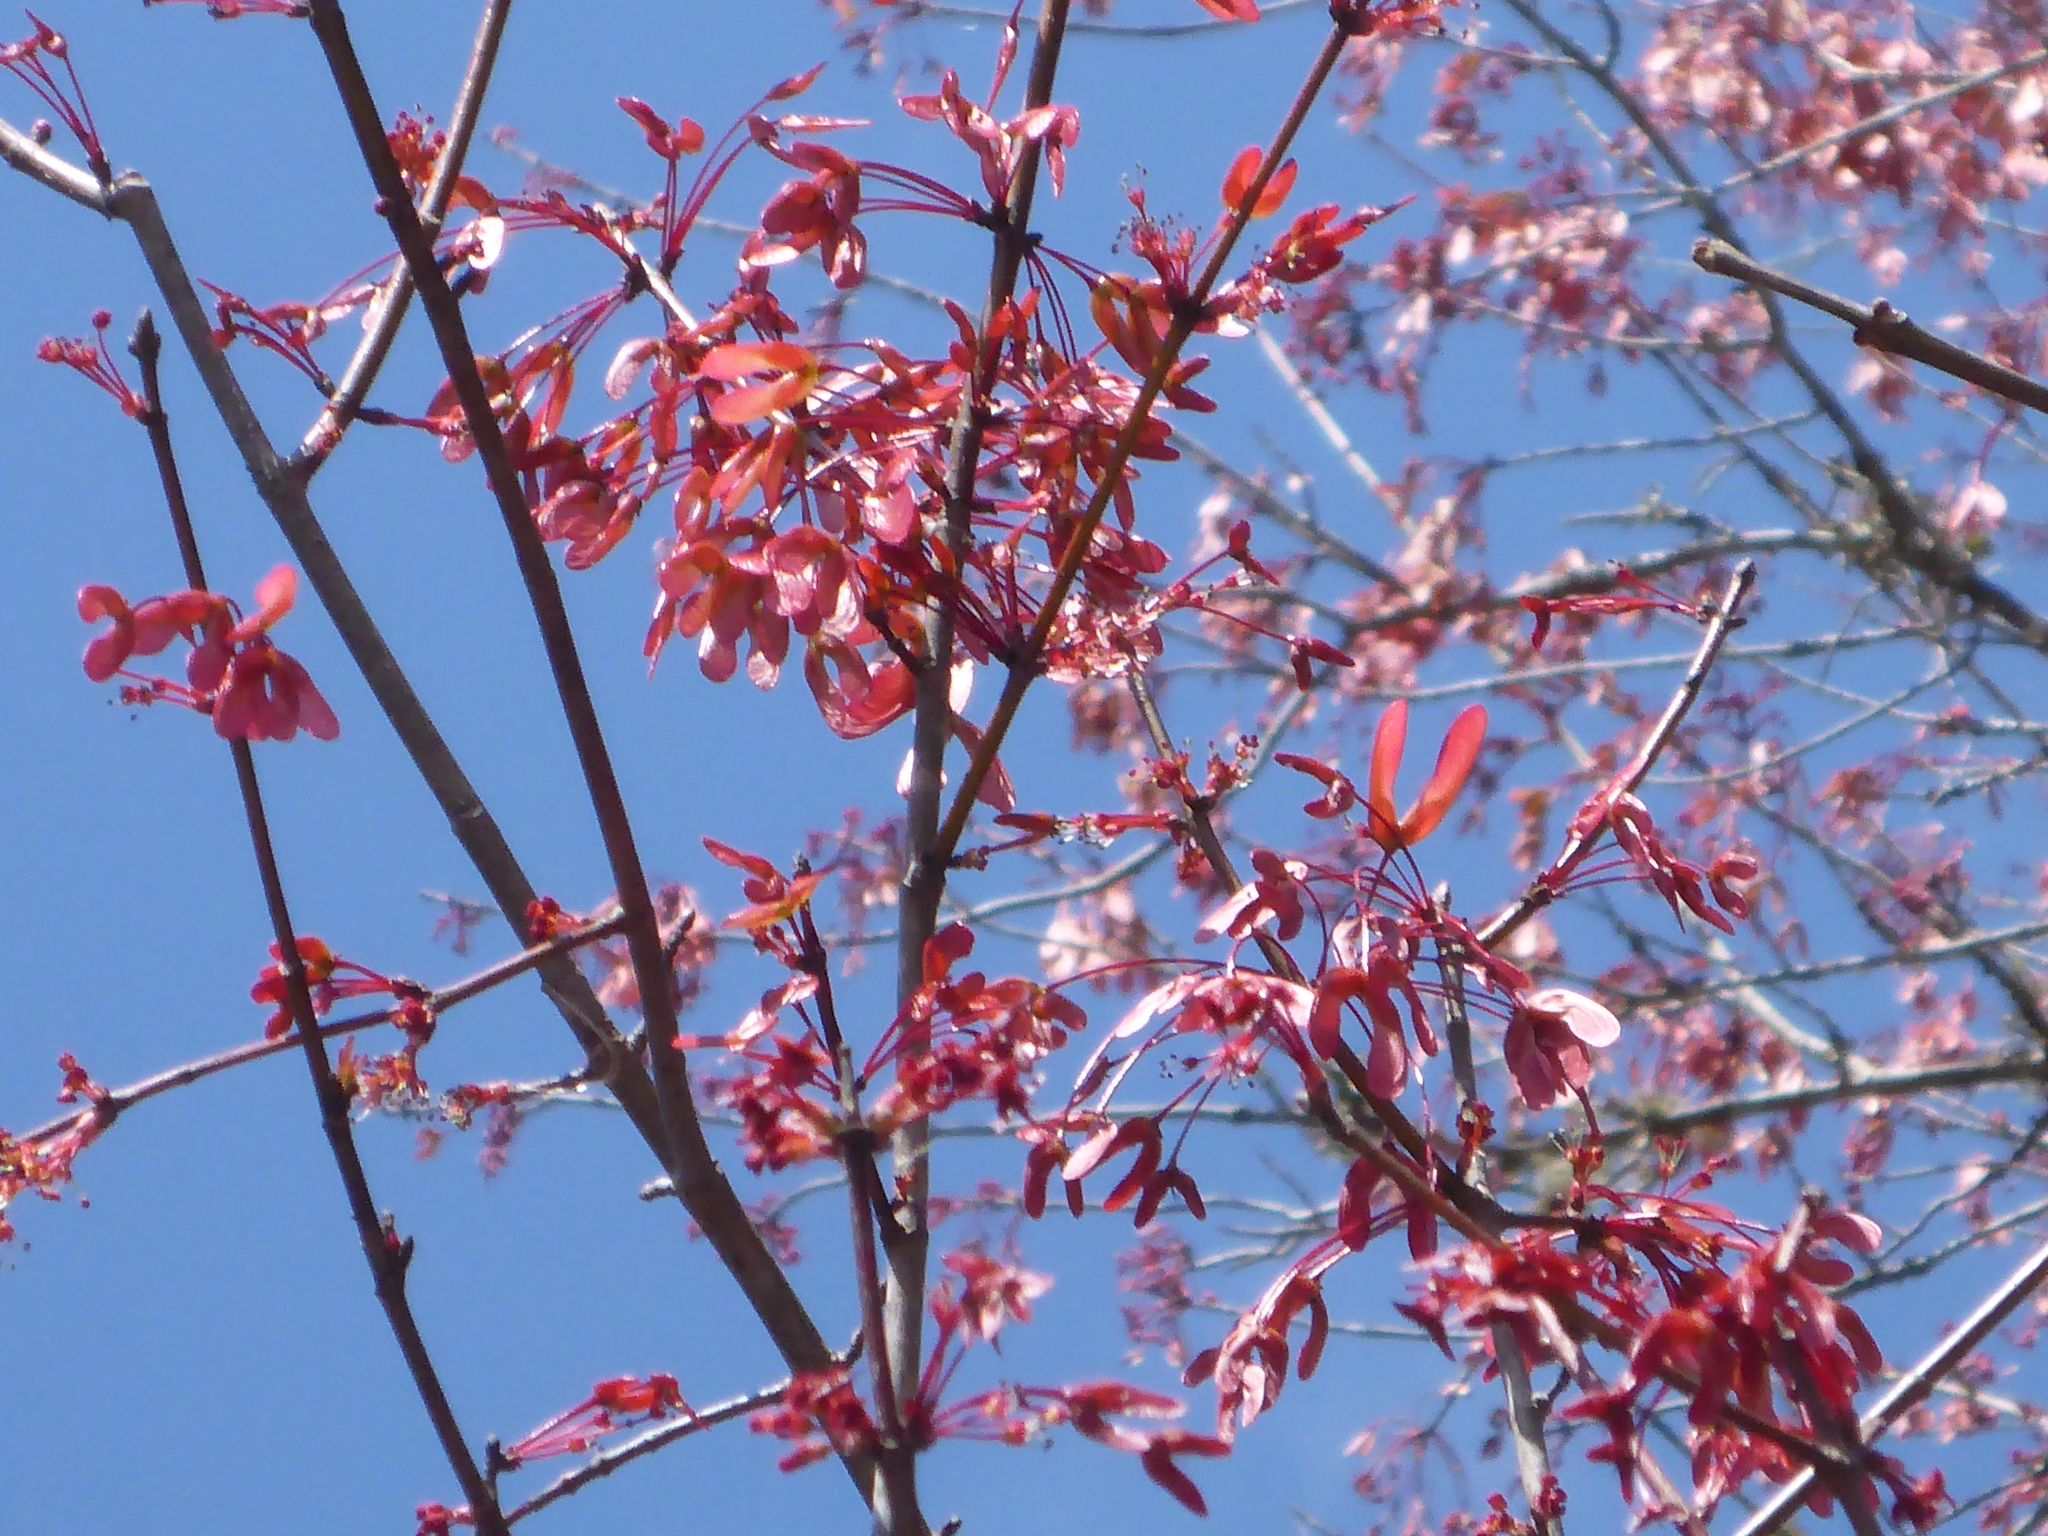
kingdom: Plantae
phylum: Tracheophyta
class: Magnoliopsida
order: Sapindales
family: Sapindaceae
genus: Acer
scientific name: Acer rubrum
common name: Red maple
